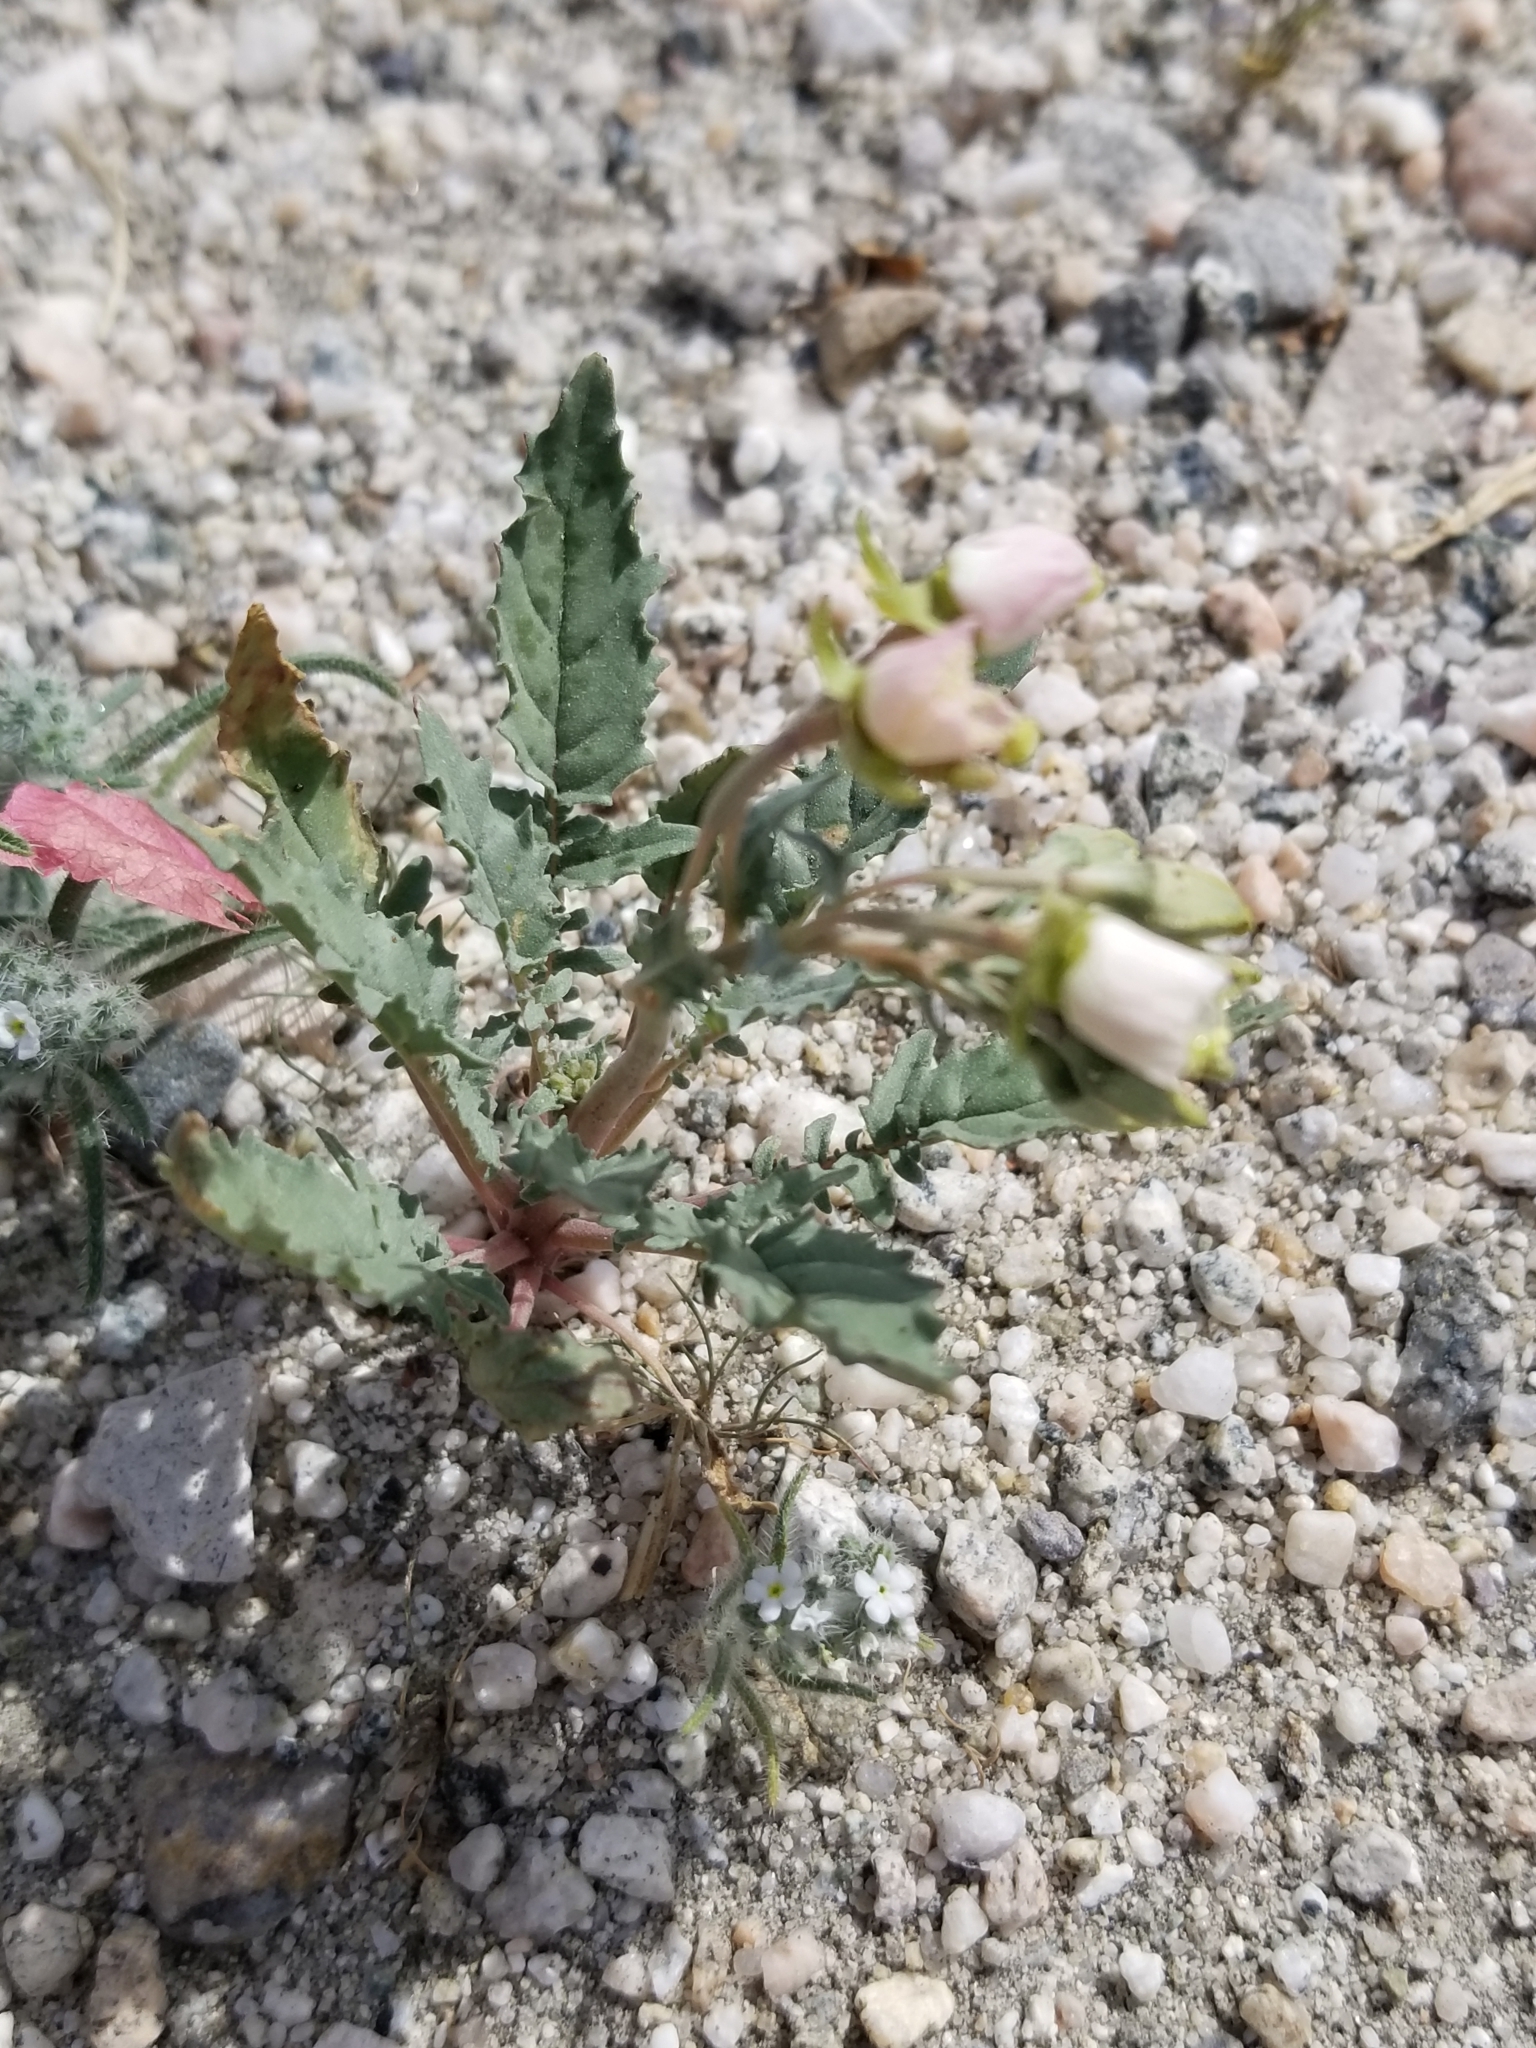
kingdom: Plantae
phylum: Tracheophyta
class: Magnoliopsida
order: Myrtales
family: Onagraceae
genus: Chylismia
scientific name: Chylismia claviformis
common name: Browneyes
